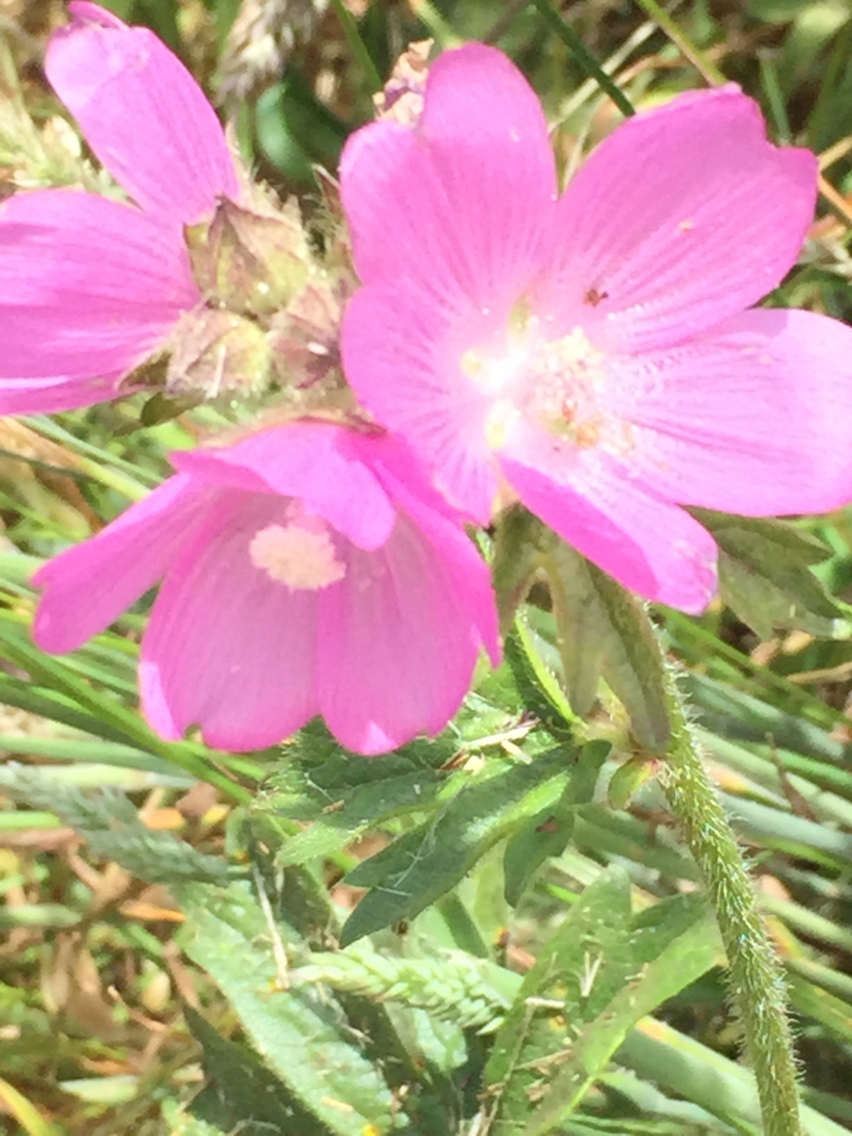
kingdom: Plantae
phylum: Tracheophyta
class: Magnoliopsida
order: Malvales
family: Malvaceae
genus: Sidalcea
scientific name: Sidalcea hirtipes
